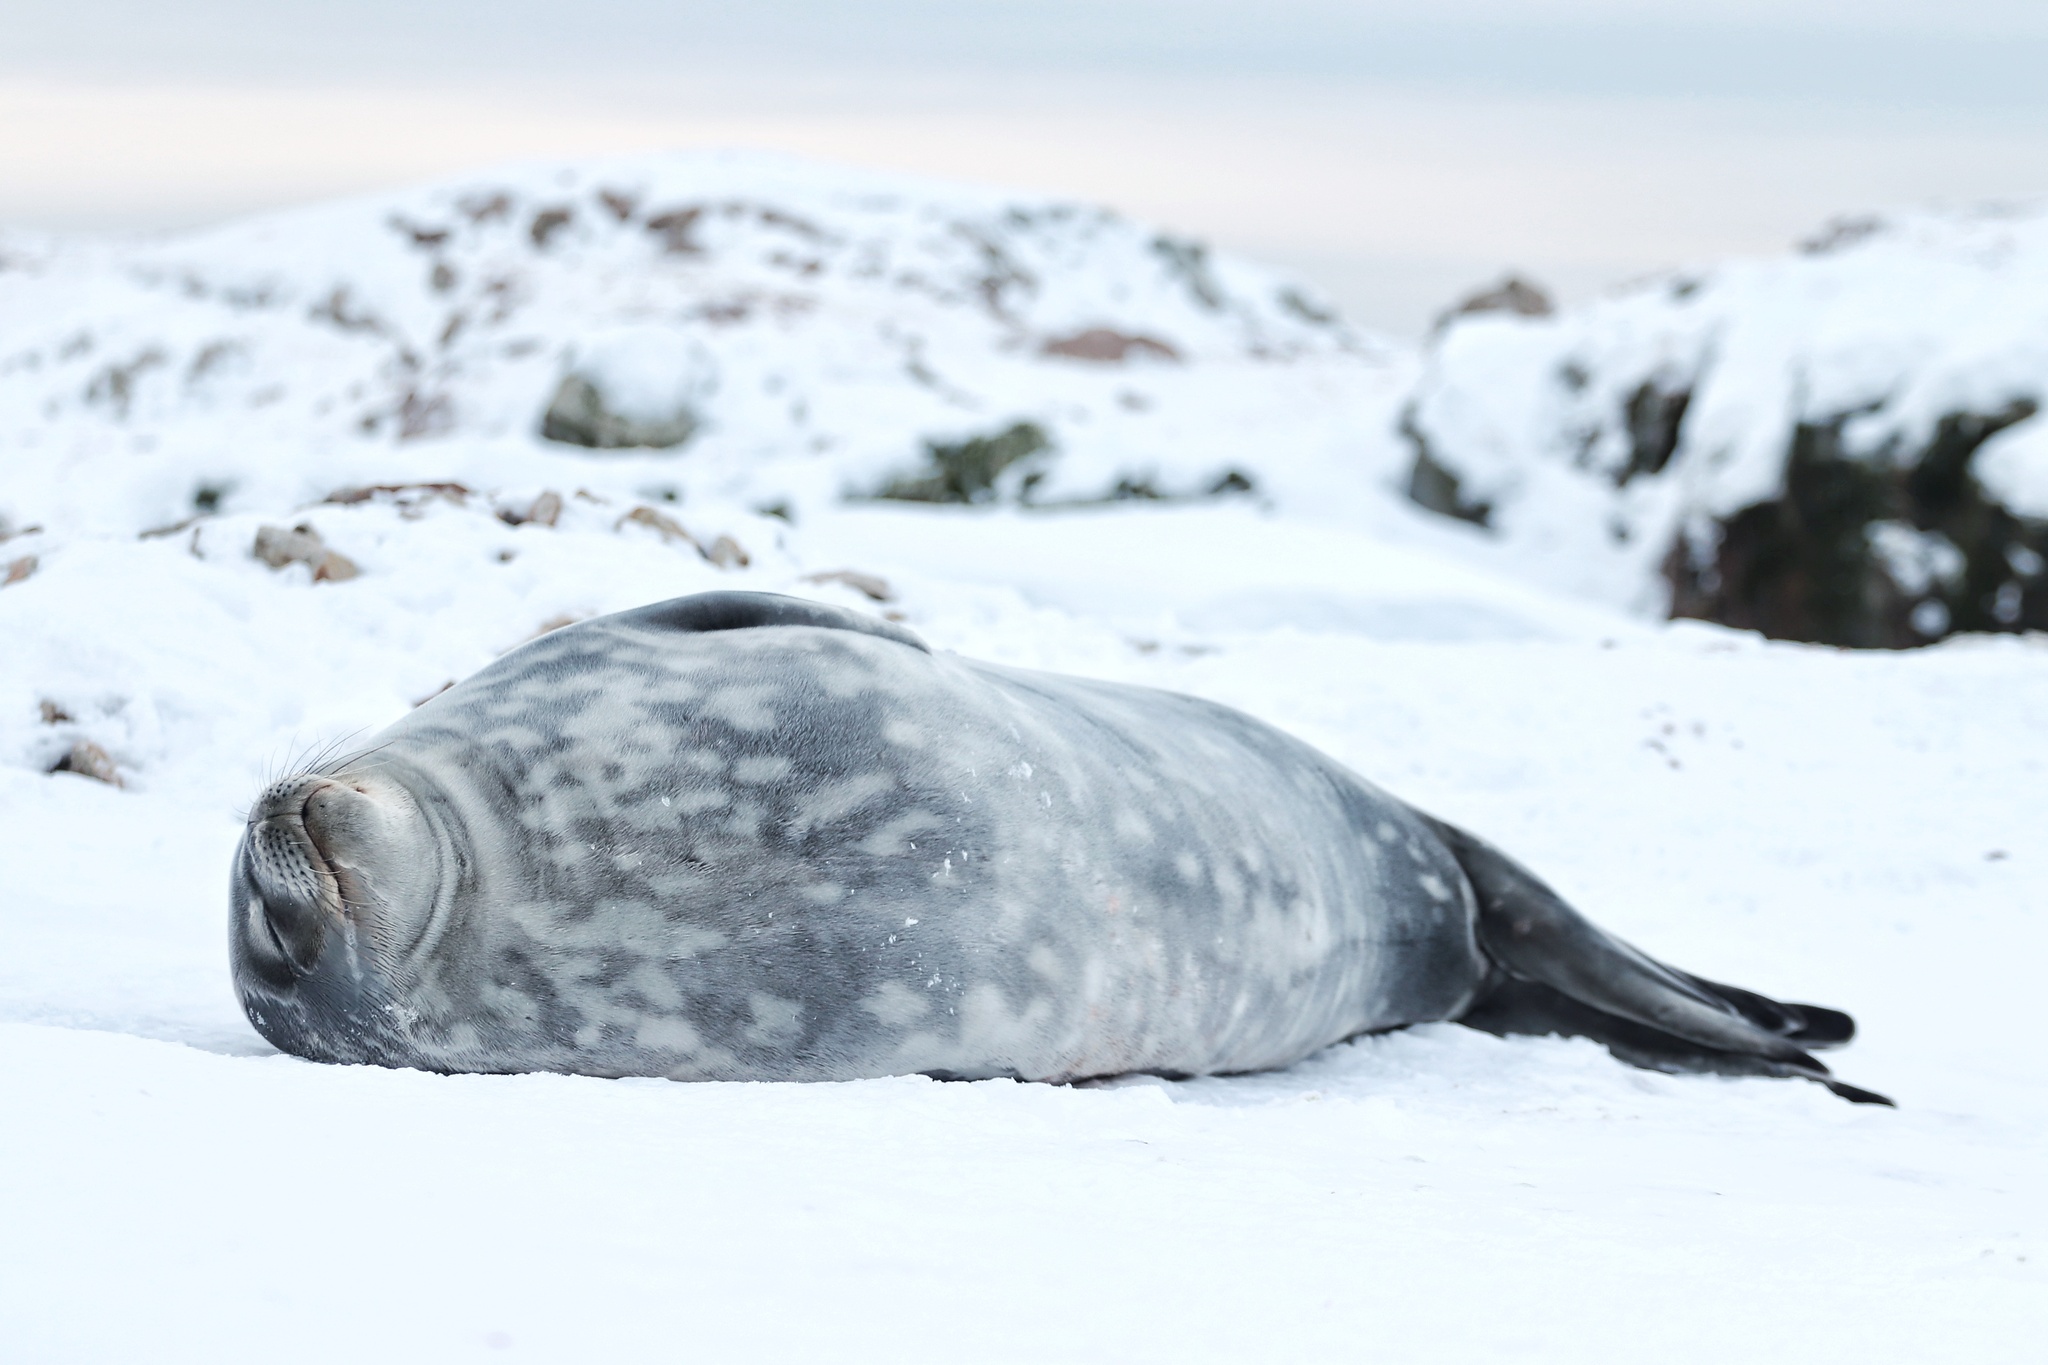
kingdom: Animalia
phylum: Chordata
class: Mammalia
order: Carnivora
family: Phocidae
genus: Leptonychotes
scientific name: Leptonychotes weddellii
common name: Weddell seal
